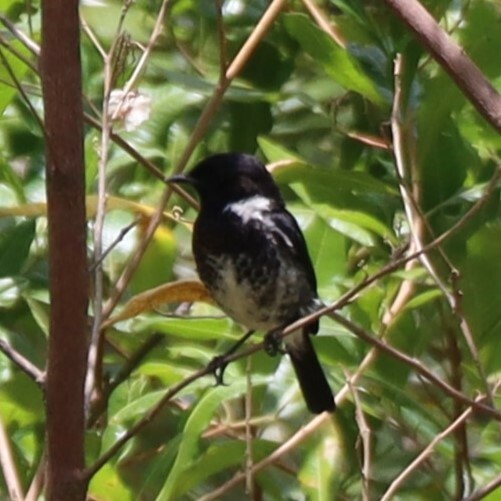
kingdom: Animalia
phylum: Chordata
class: Aves
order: Passeriformes
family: Muscicapidae
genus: Saxicola
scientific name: Saxicola torquatus
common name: African stonechat
